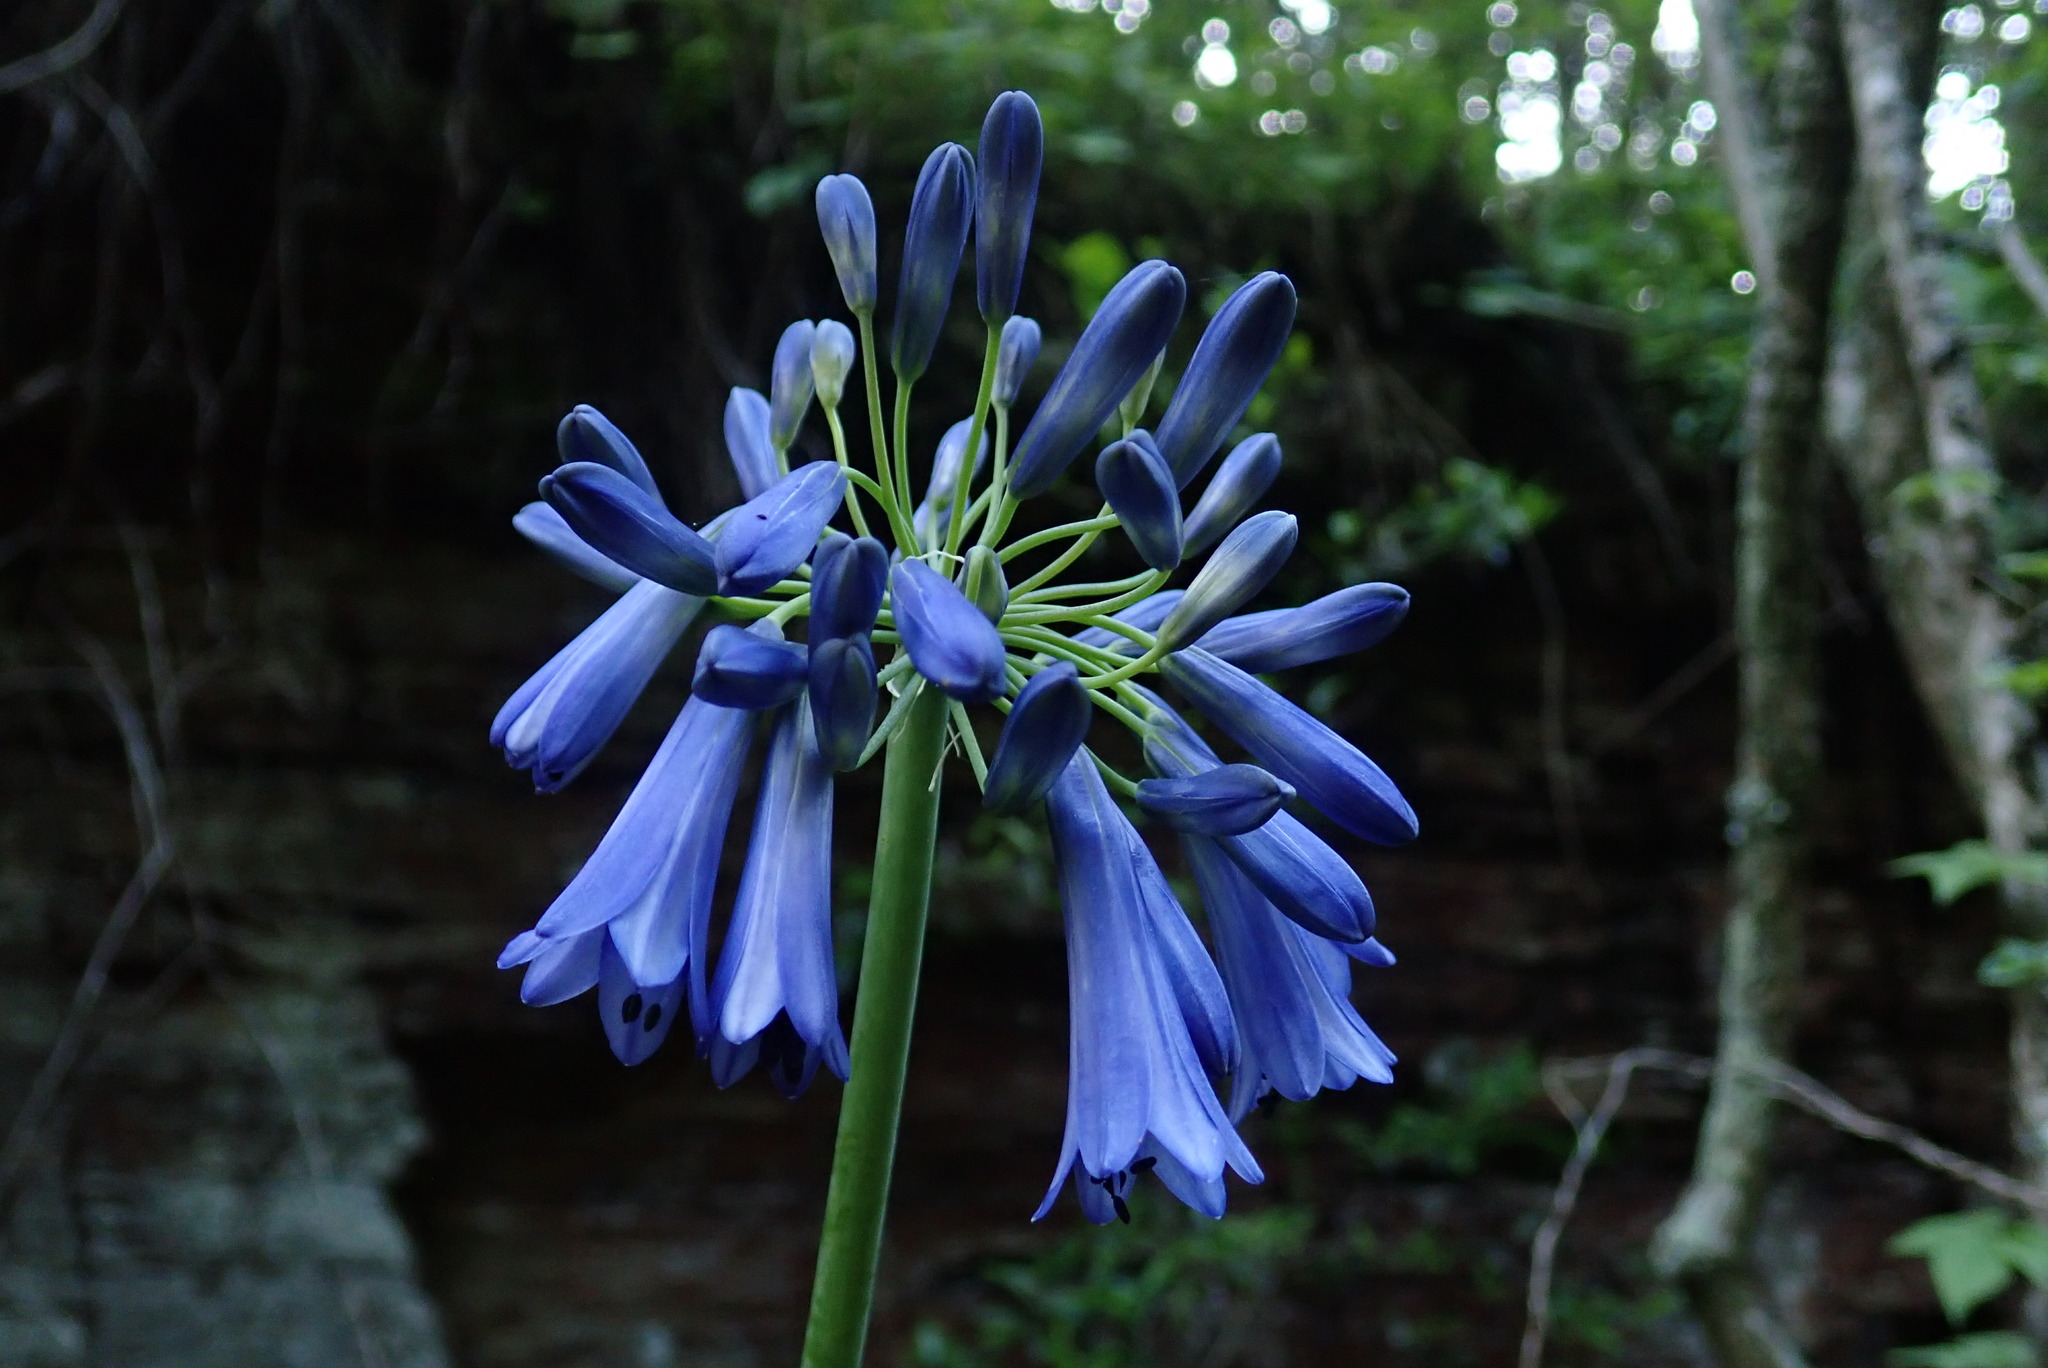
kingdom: Plantae
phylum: Tracheophyta
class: Liliopsida
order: Asparagales
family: Amaryllidaceae
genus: Agapanthus
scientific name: Agapanthus inapertus
